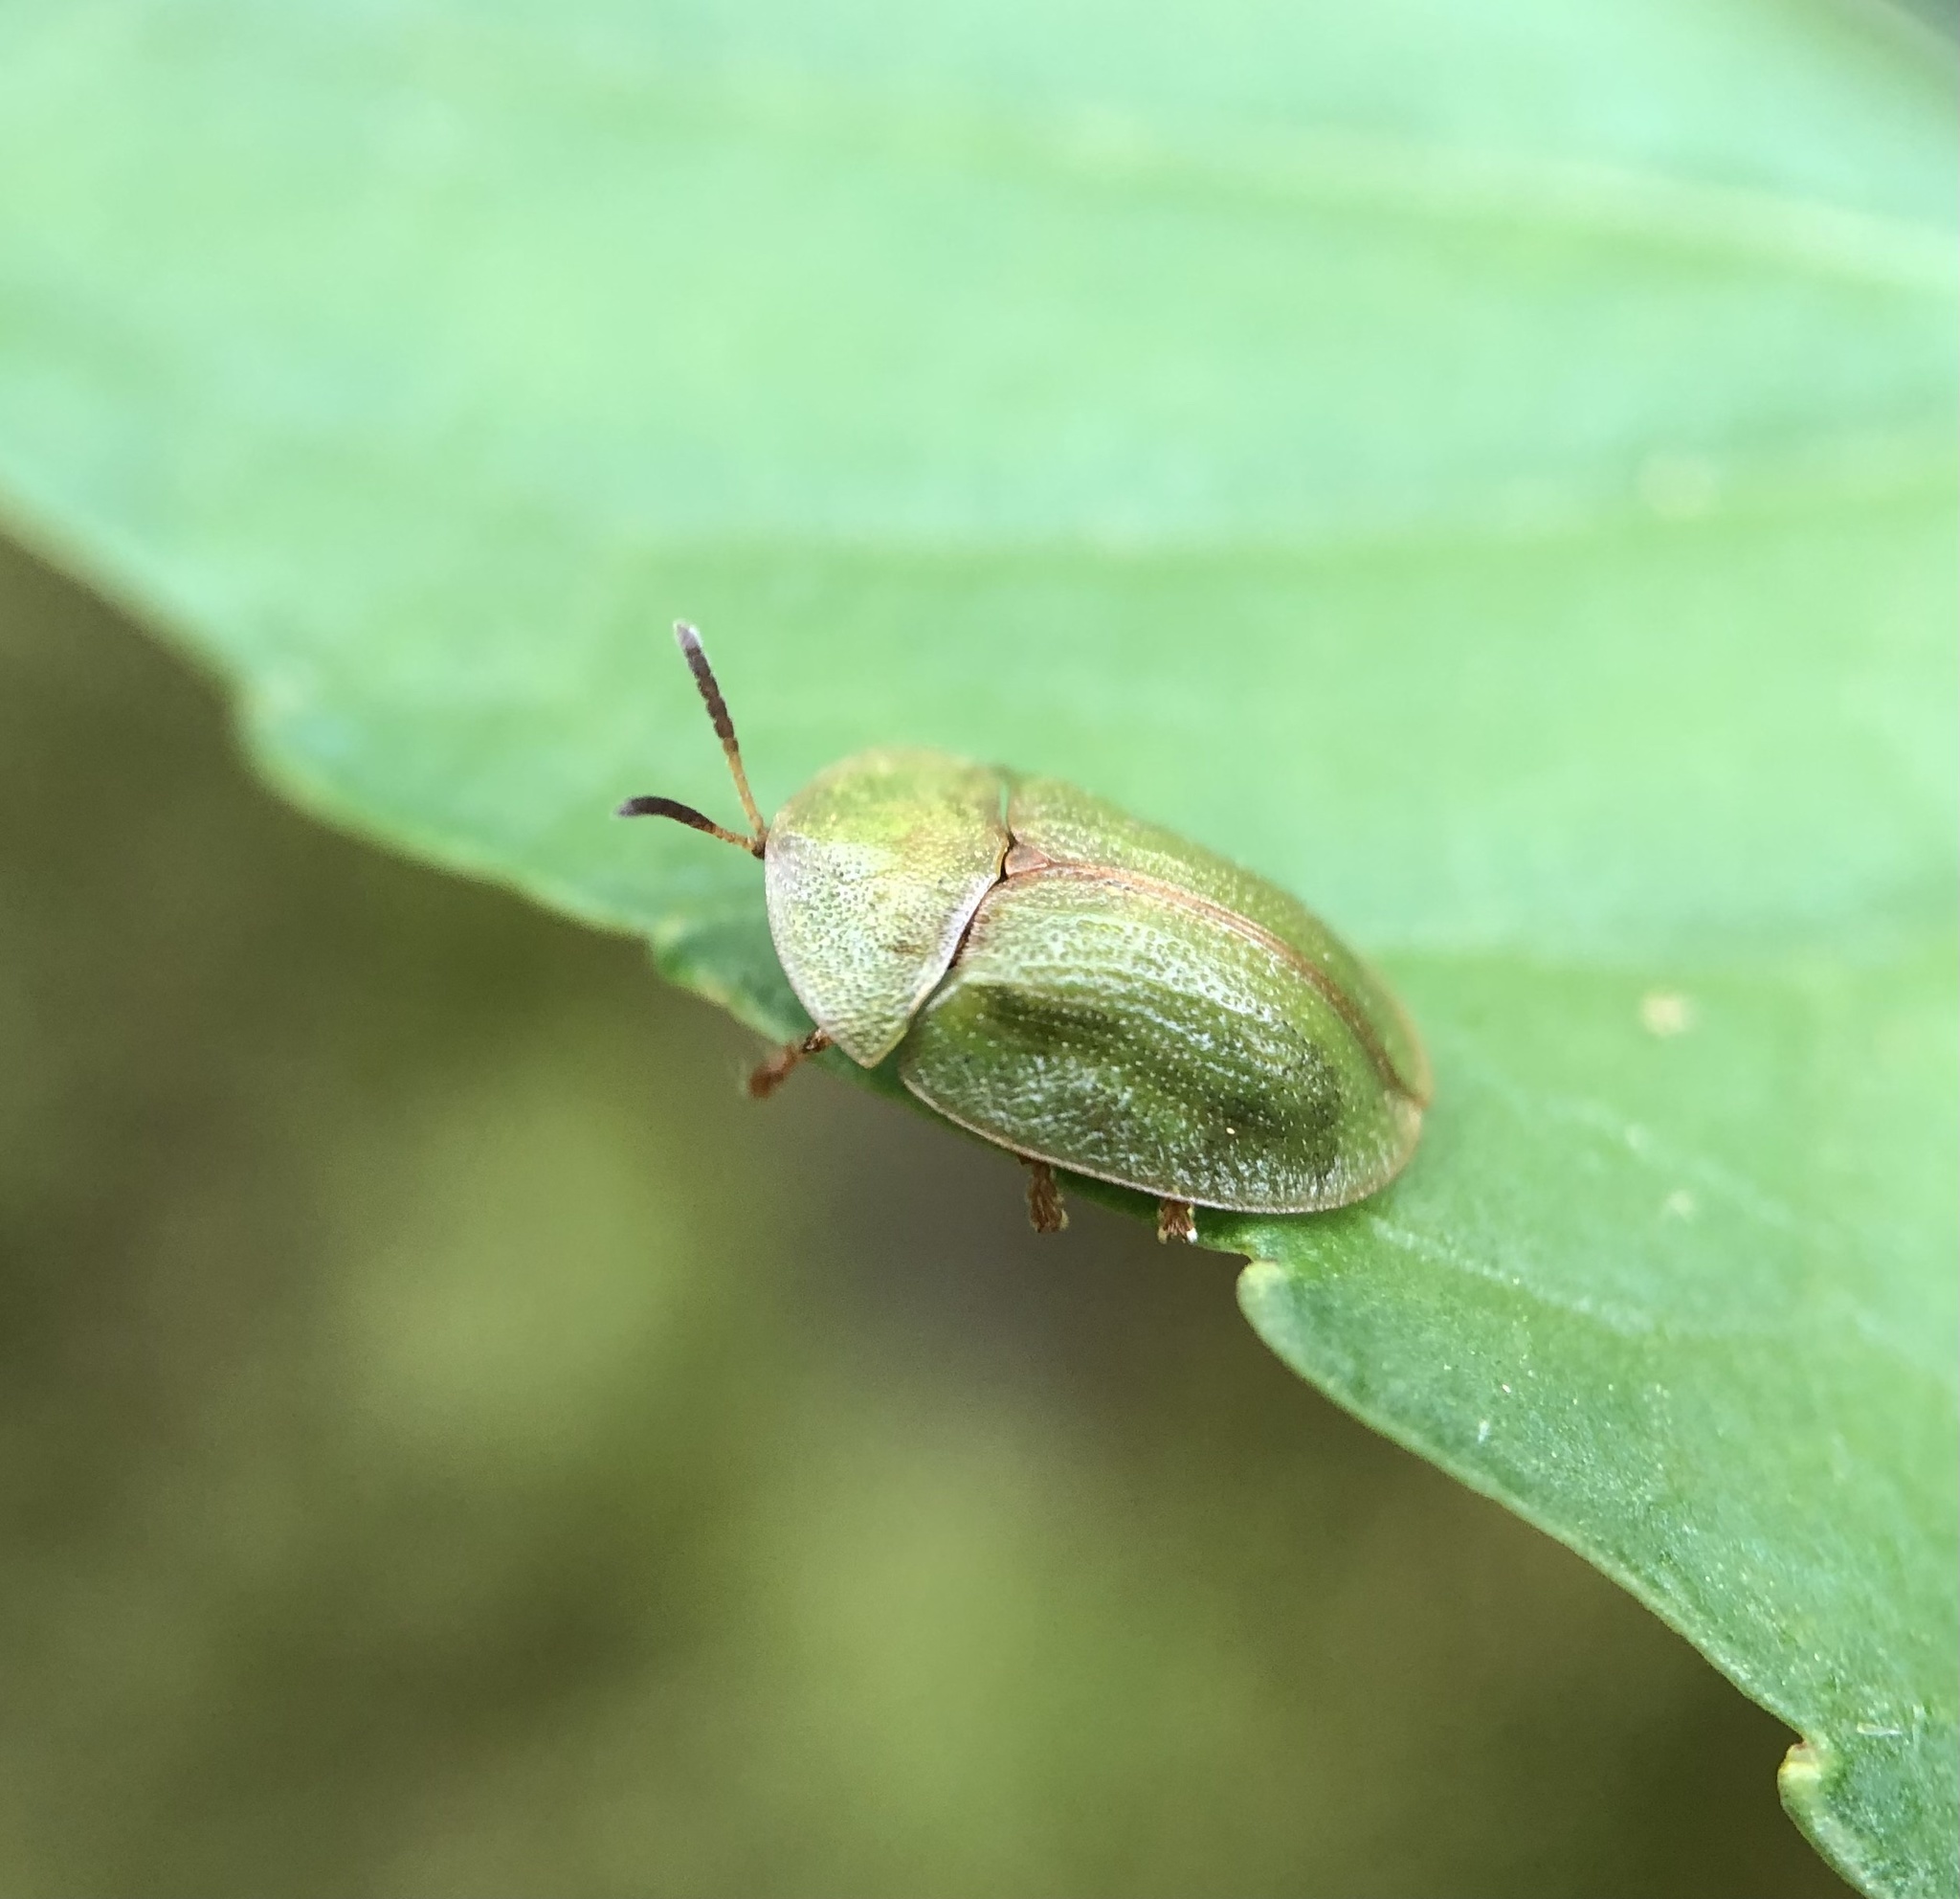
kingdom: Animalia
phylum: Arthropoda
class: Insecta
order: Coleoptera
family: Chrysomelidae
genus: Cassida
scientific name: Cassida rubiginosa
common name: Thistle tortoise beetle
